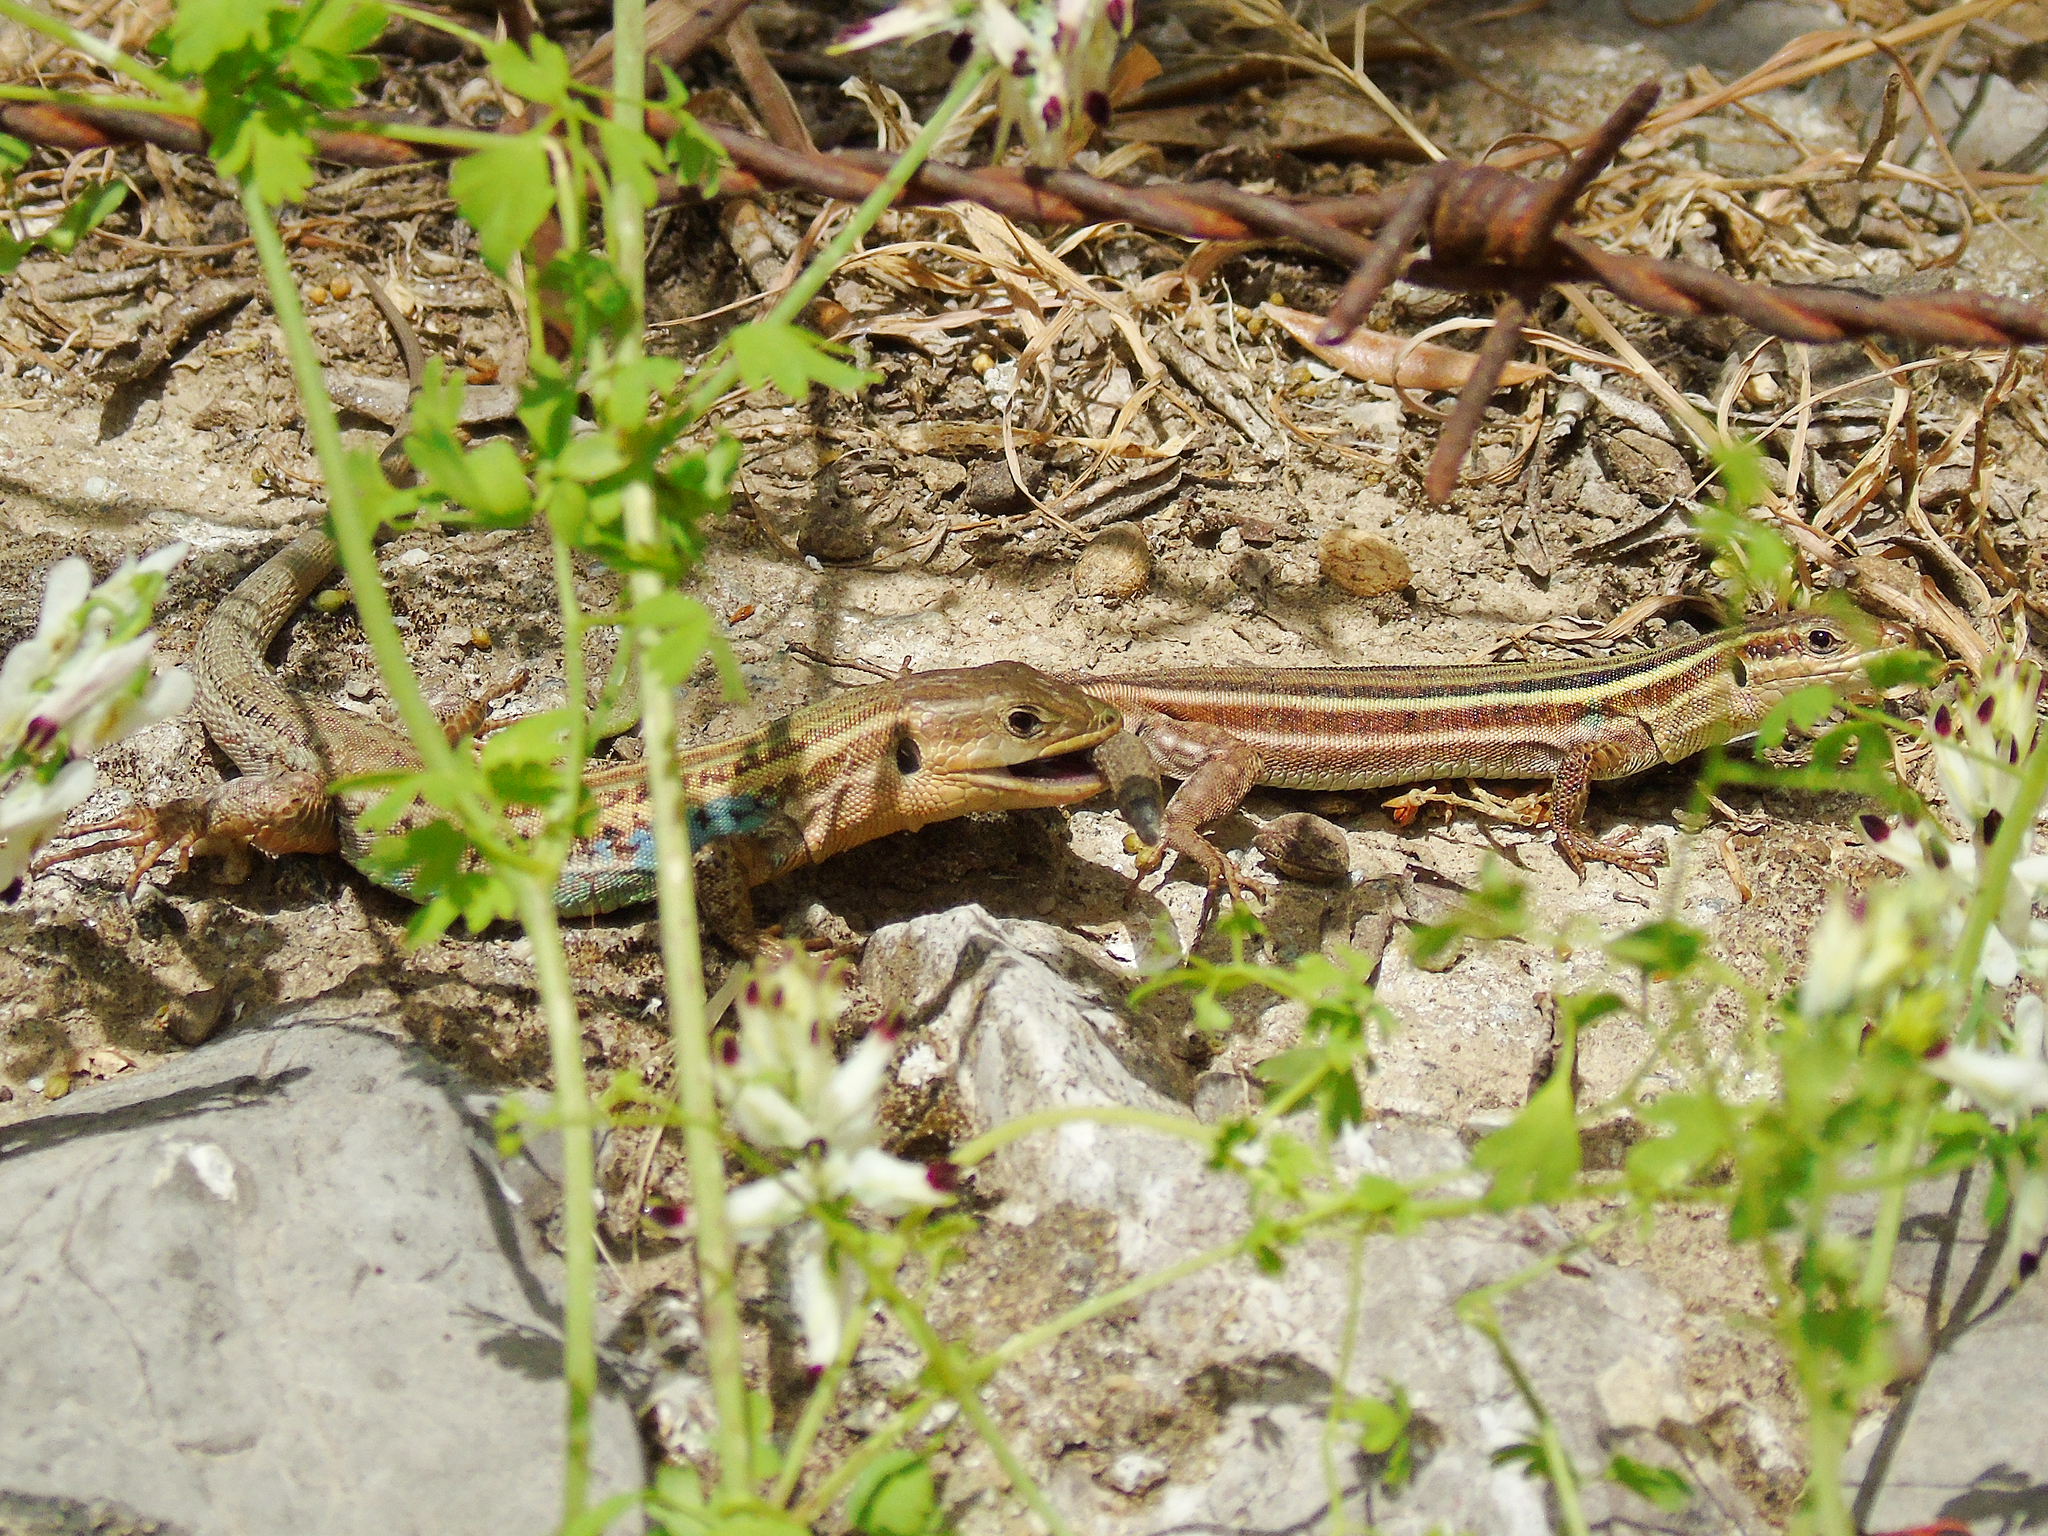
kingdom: Animalia
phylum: Chordata
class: Squamata
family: Lacertidae
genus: Podarcis
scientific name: Podarcis peloponnesiacus
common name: Peloponnese wall lizard
